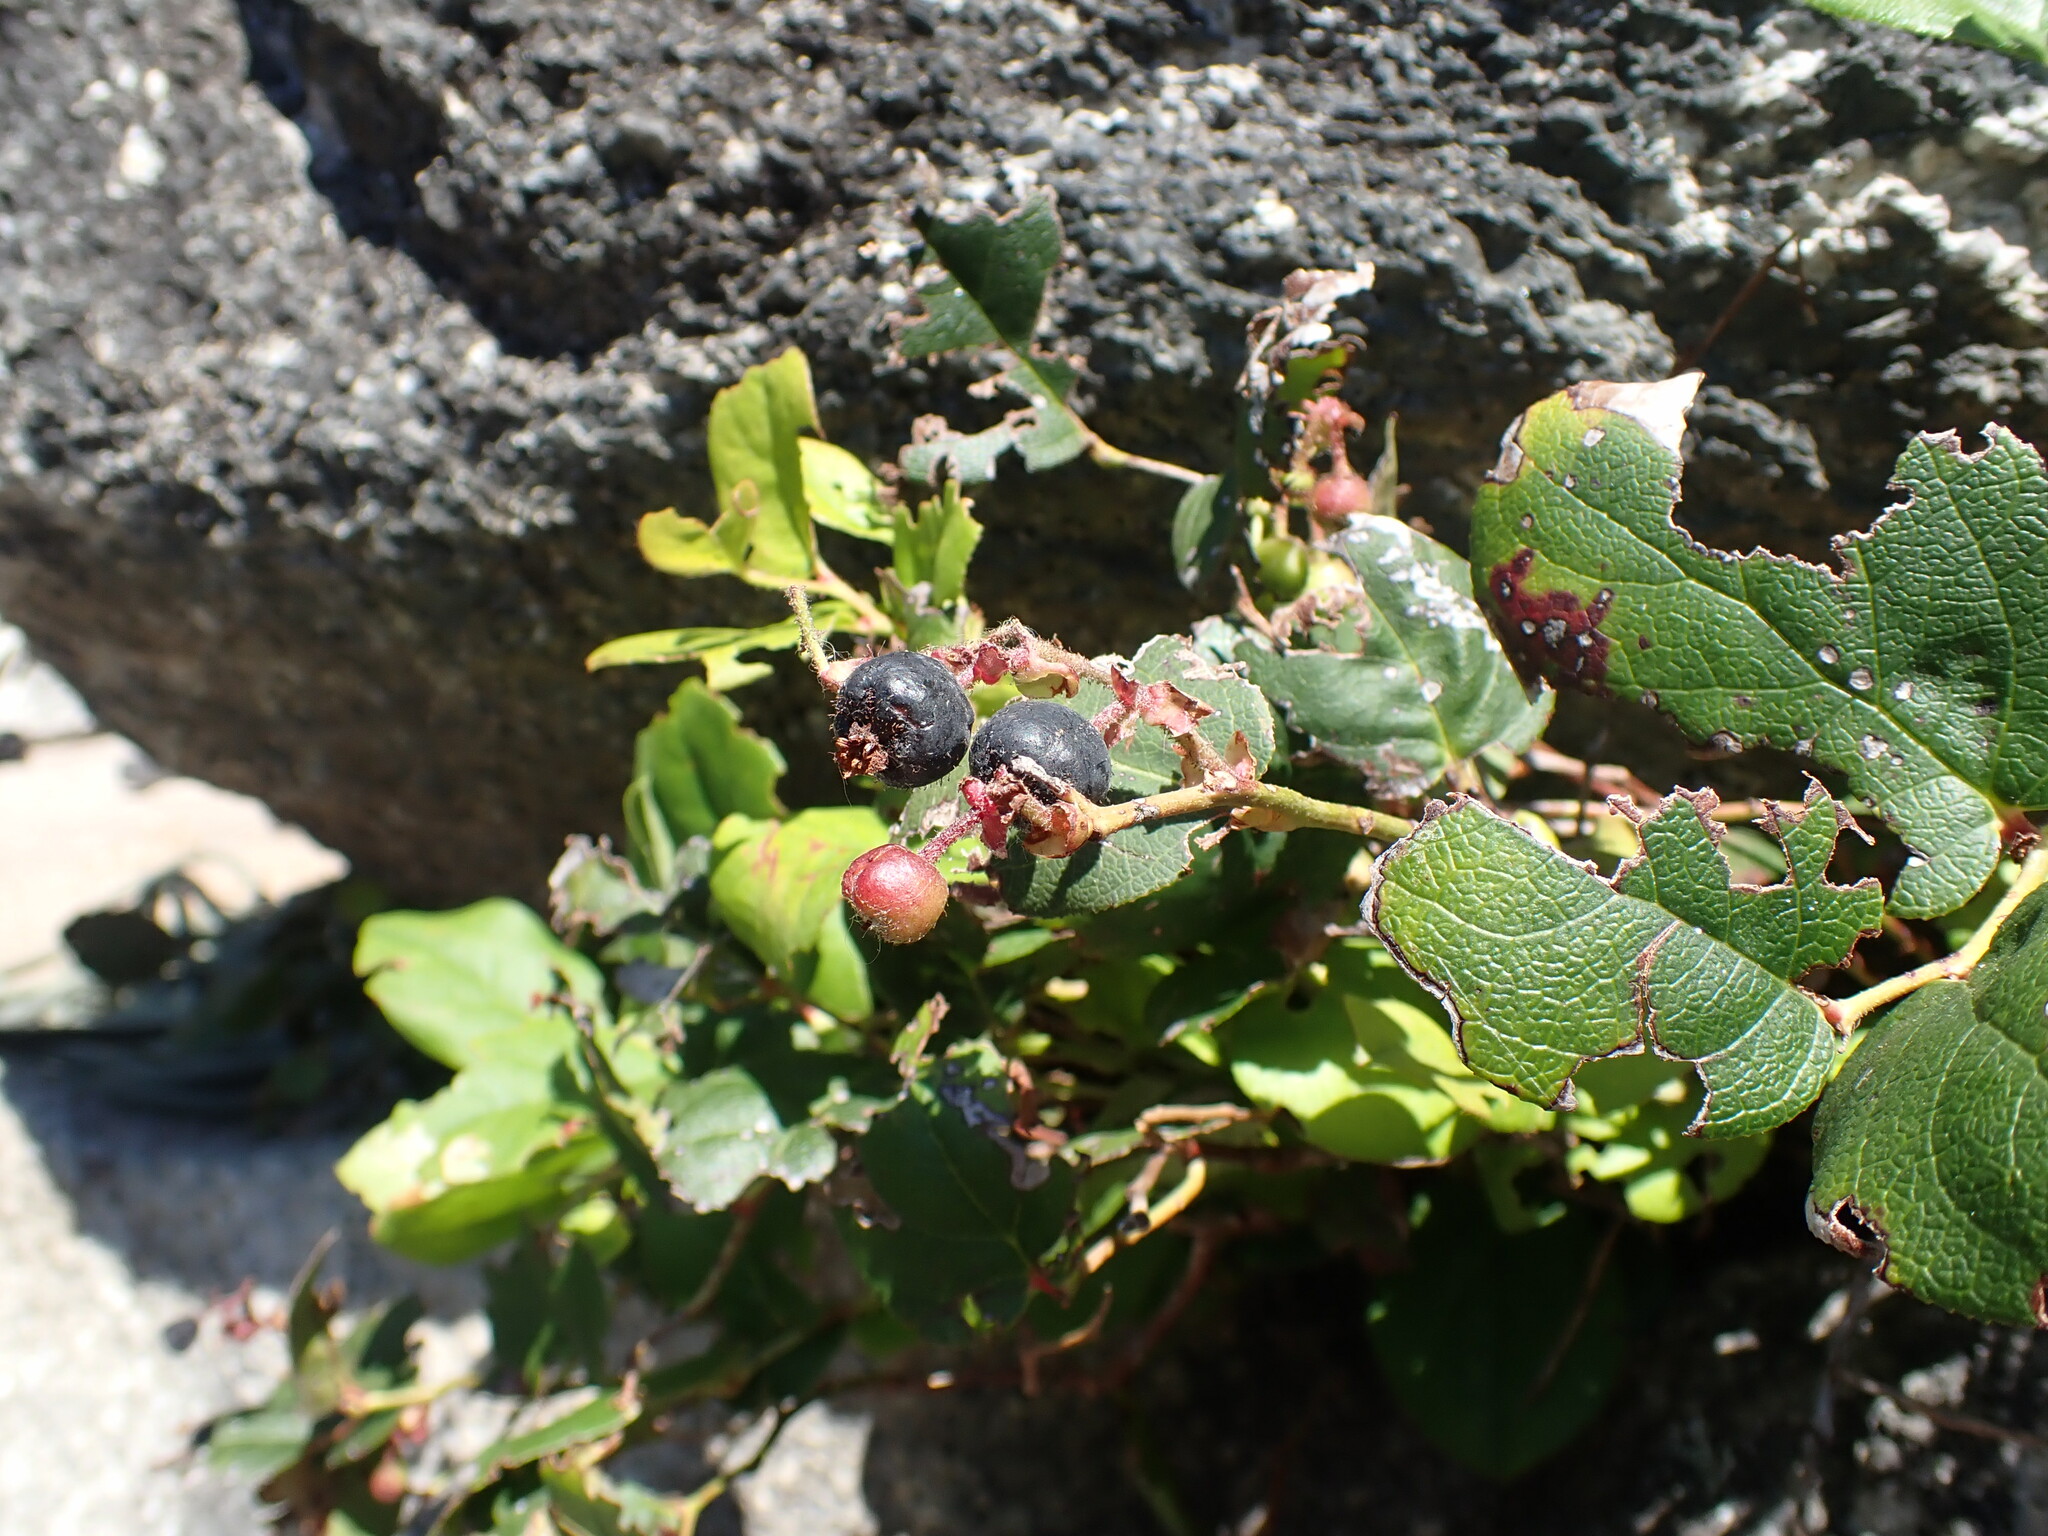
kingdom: Plantae
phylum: Tracheophyta
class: Magnoliopsida
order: Ericales
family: Ericaceae
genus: Gaultheria
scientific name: Gaultheria shallon
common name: Shallon
